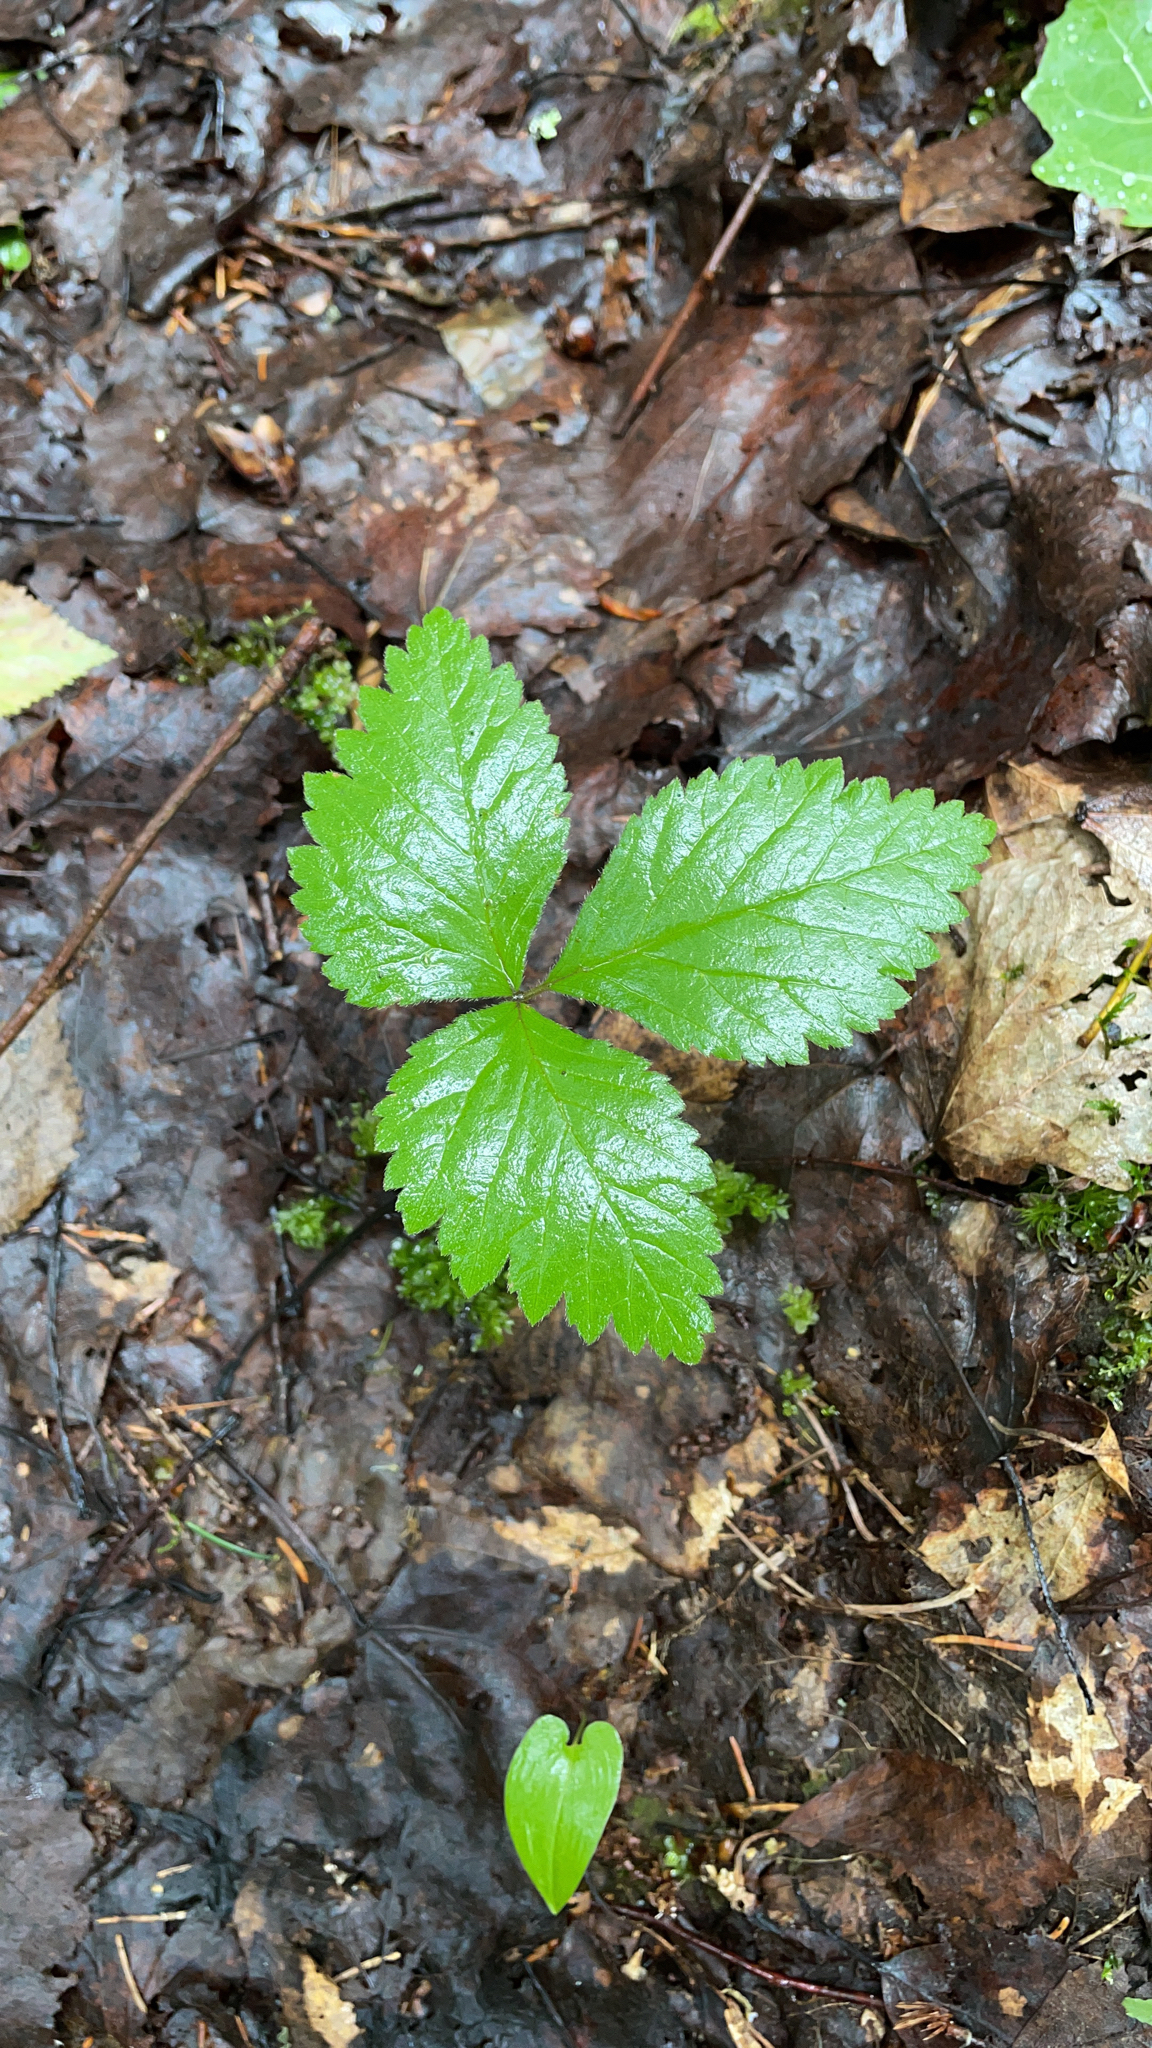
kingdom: Plantae
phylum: Tracheophyta
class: Magnoliopsida
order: Rosales
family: Rosaceae
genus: Rubus
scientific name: Rubus saxatilis
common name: Stone bramble
